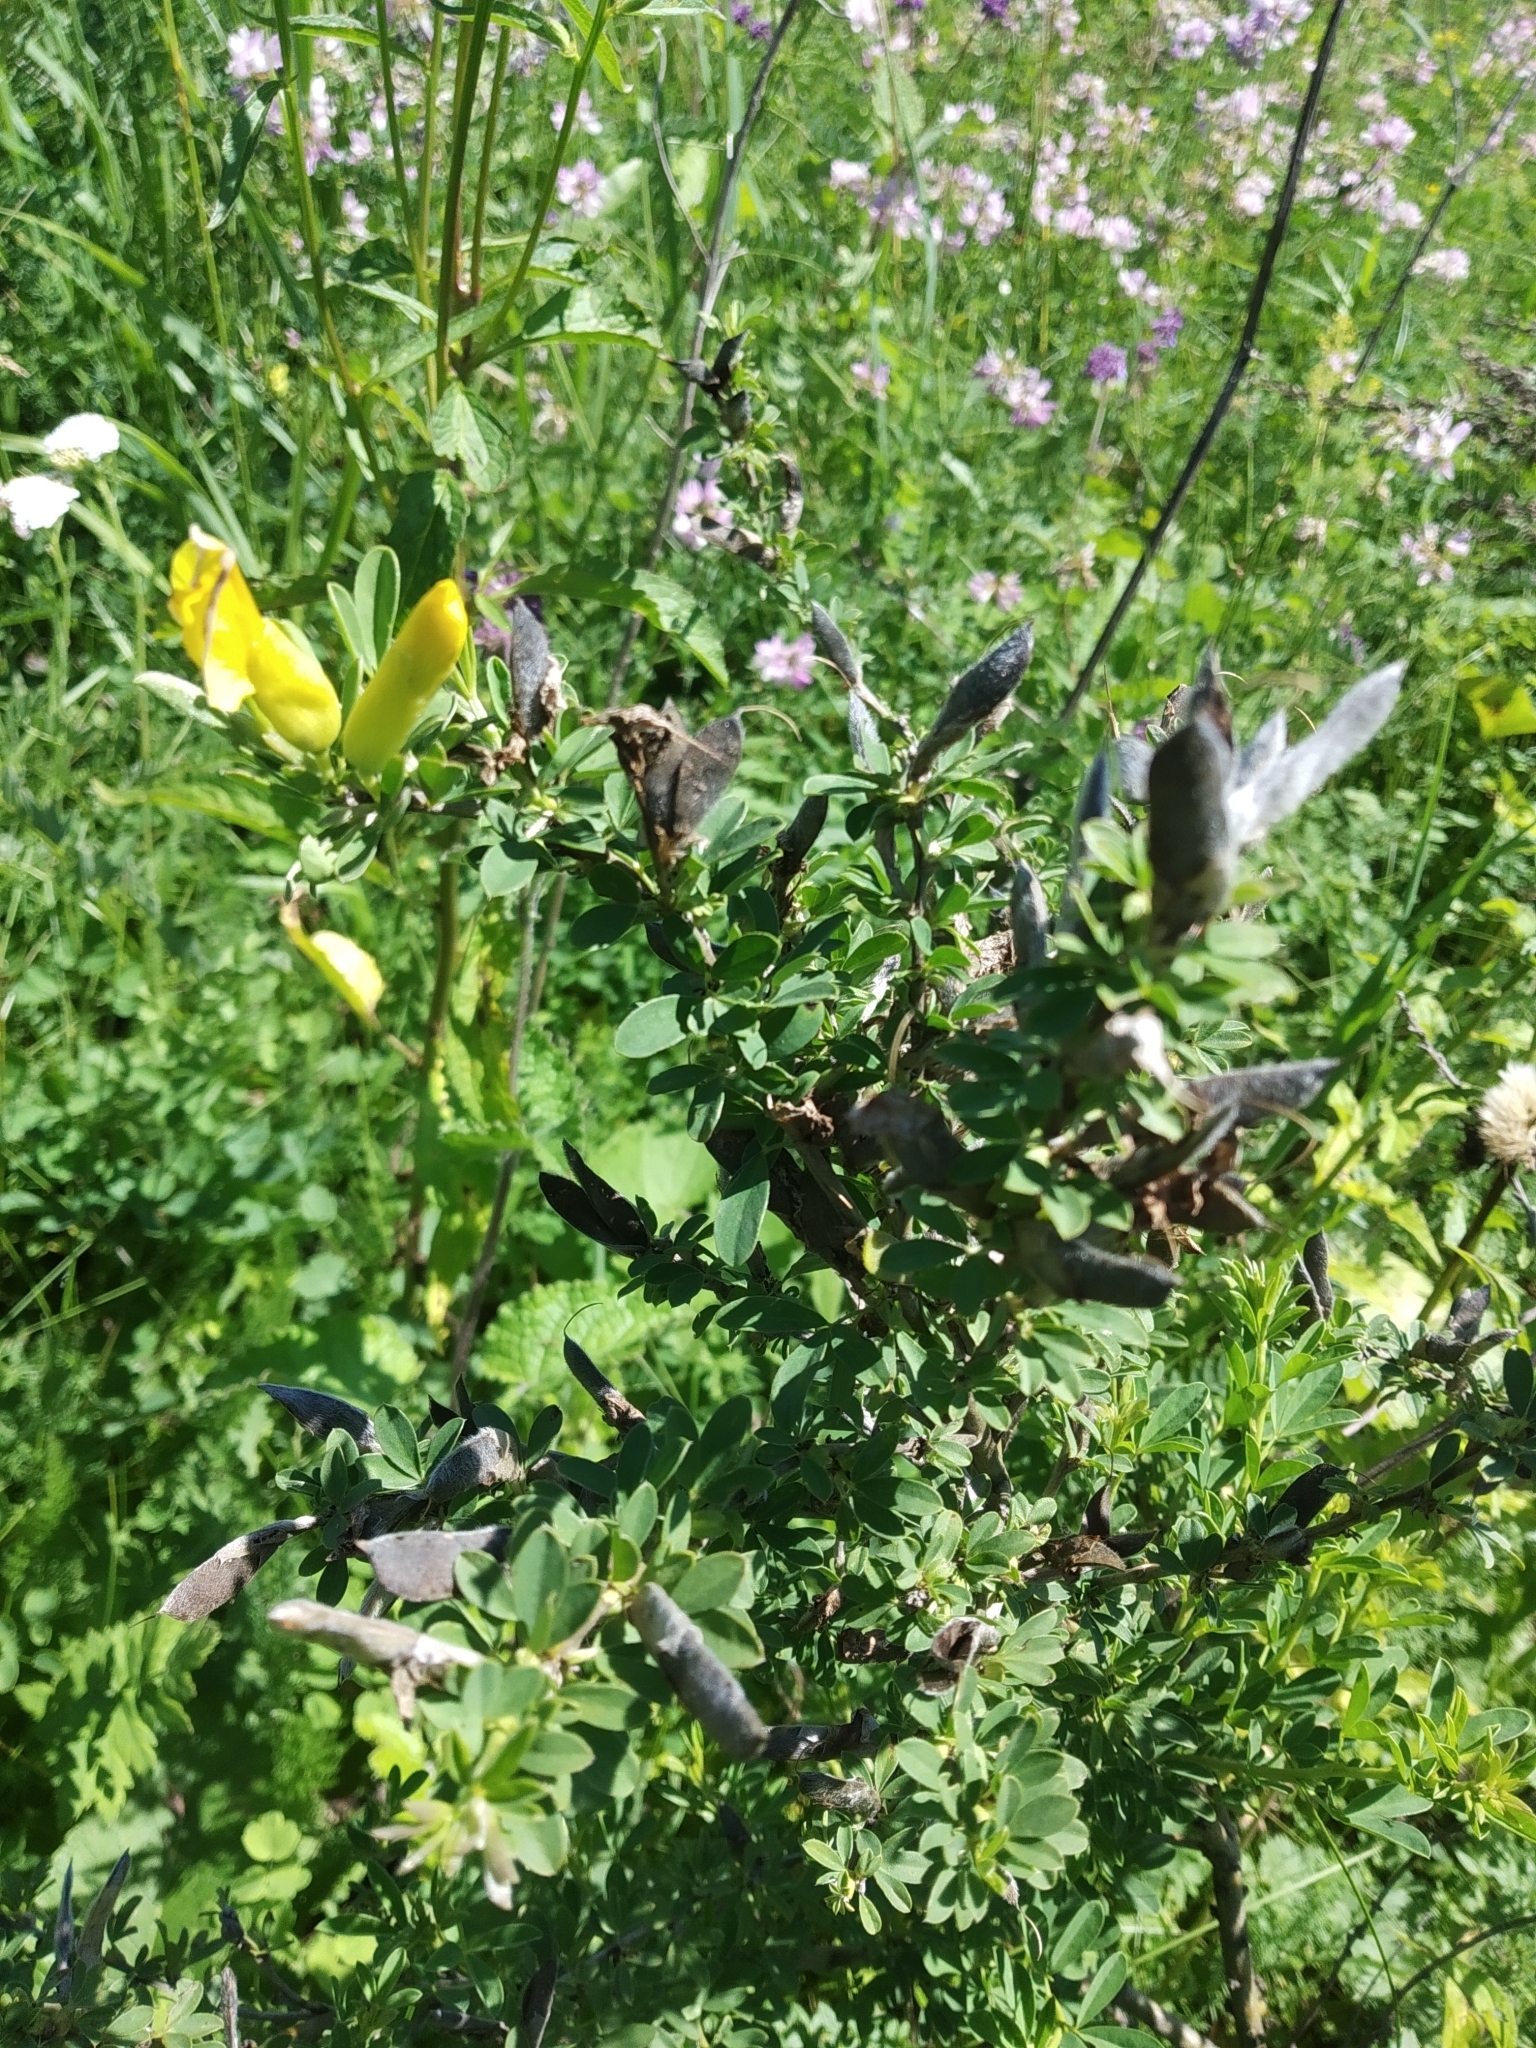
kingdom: Plantae
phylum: Tracheophyta
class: Magnoliopsida
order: Fabales
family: Fabaceae
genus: Chamaecytisus
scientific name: Chamaecytisus ruthenicus
